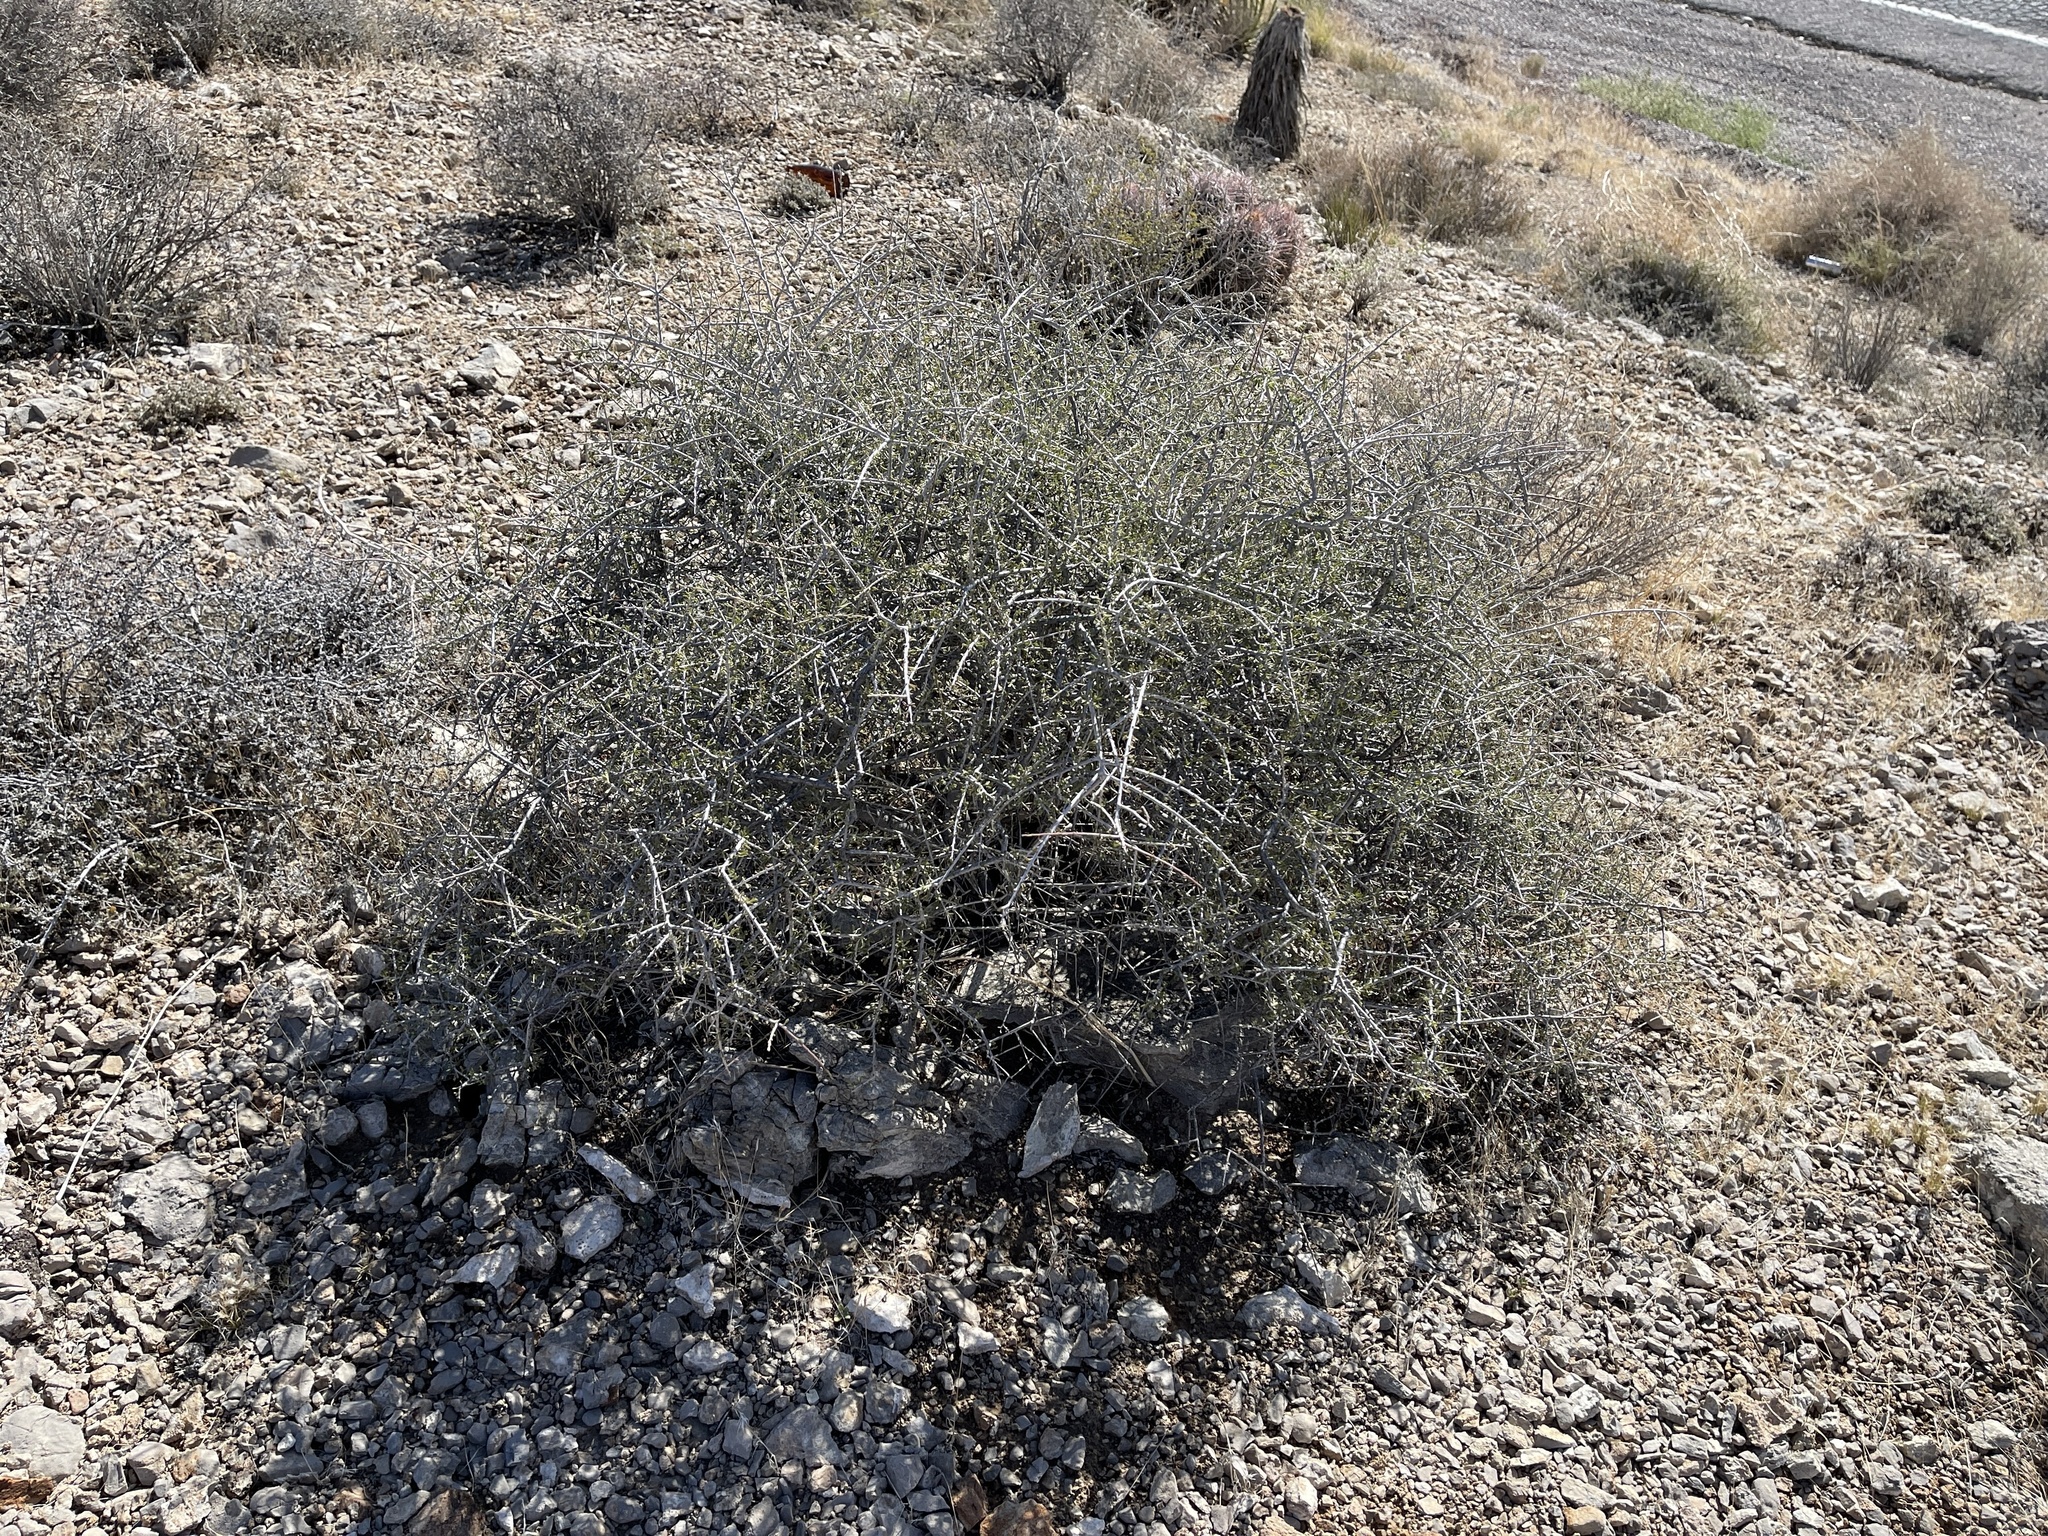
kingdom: Plantae
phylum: Tracheophyta
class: Magnoliopsida
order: Rosales
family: Rosaceae
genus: Prunus
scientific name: Prunus fasciculata
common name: Desert almond
